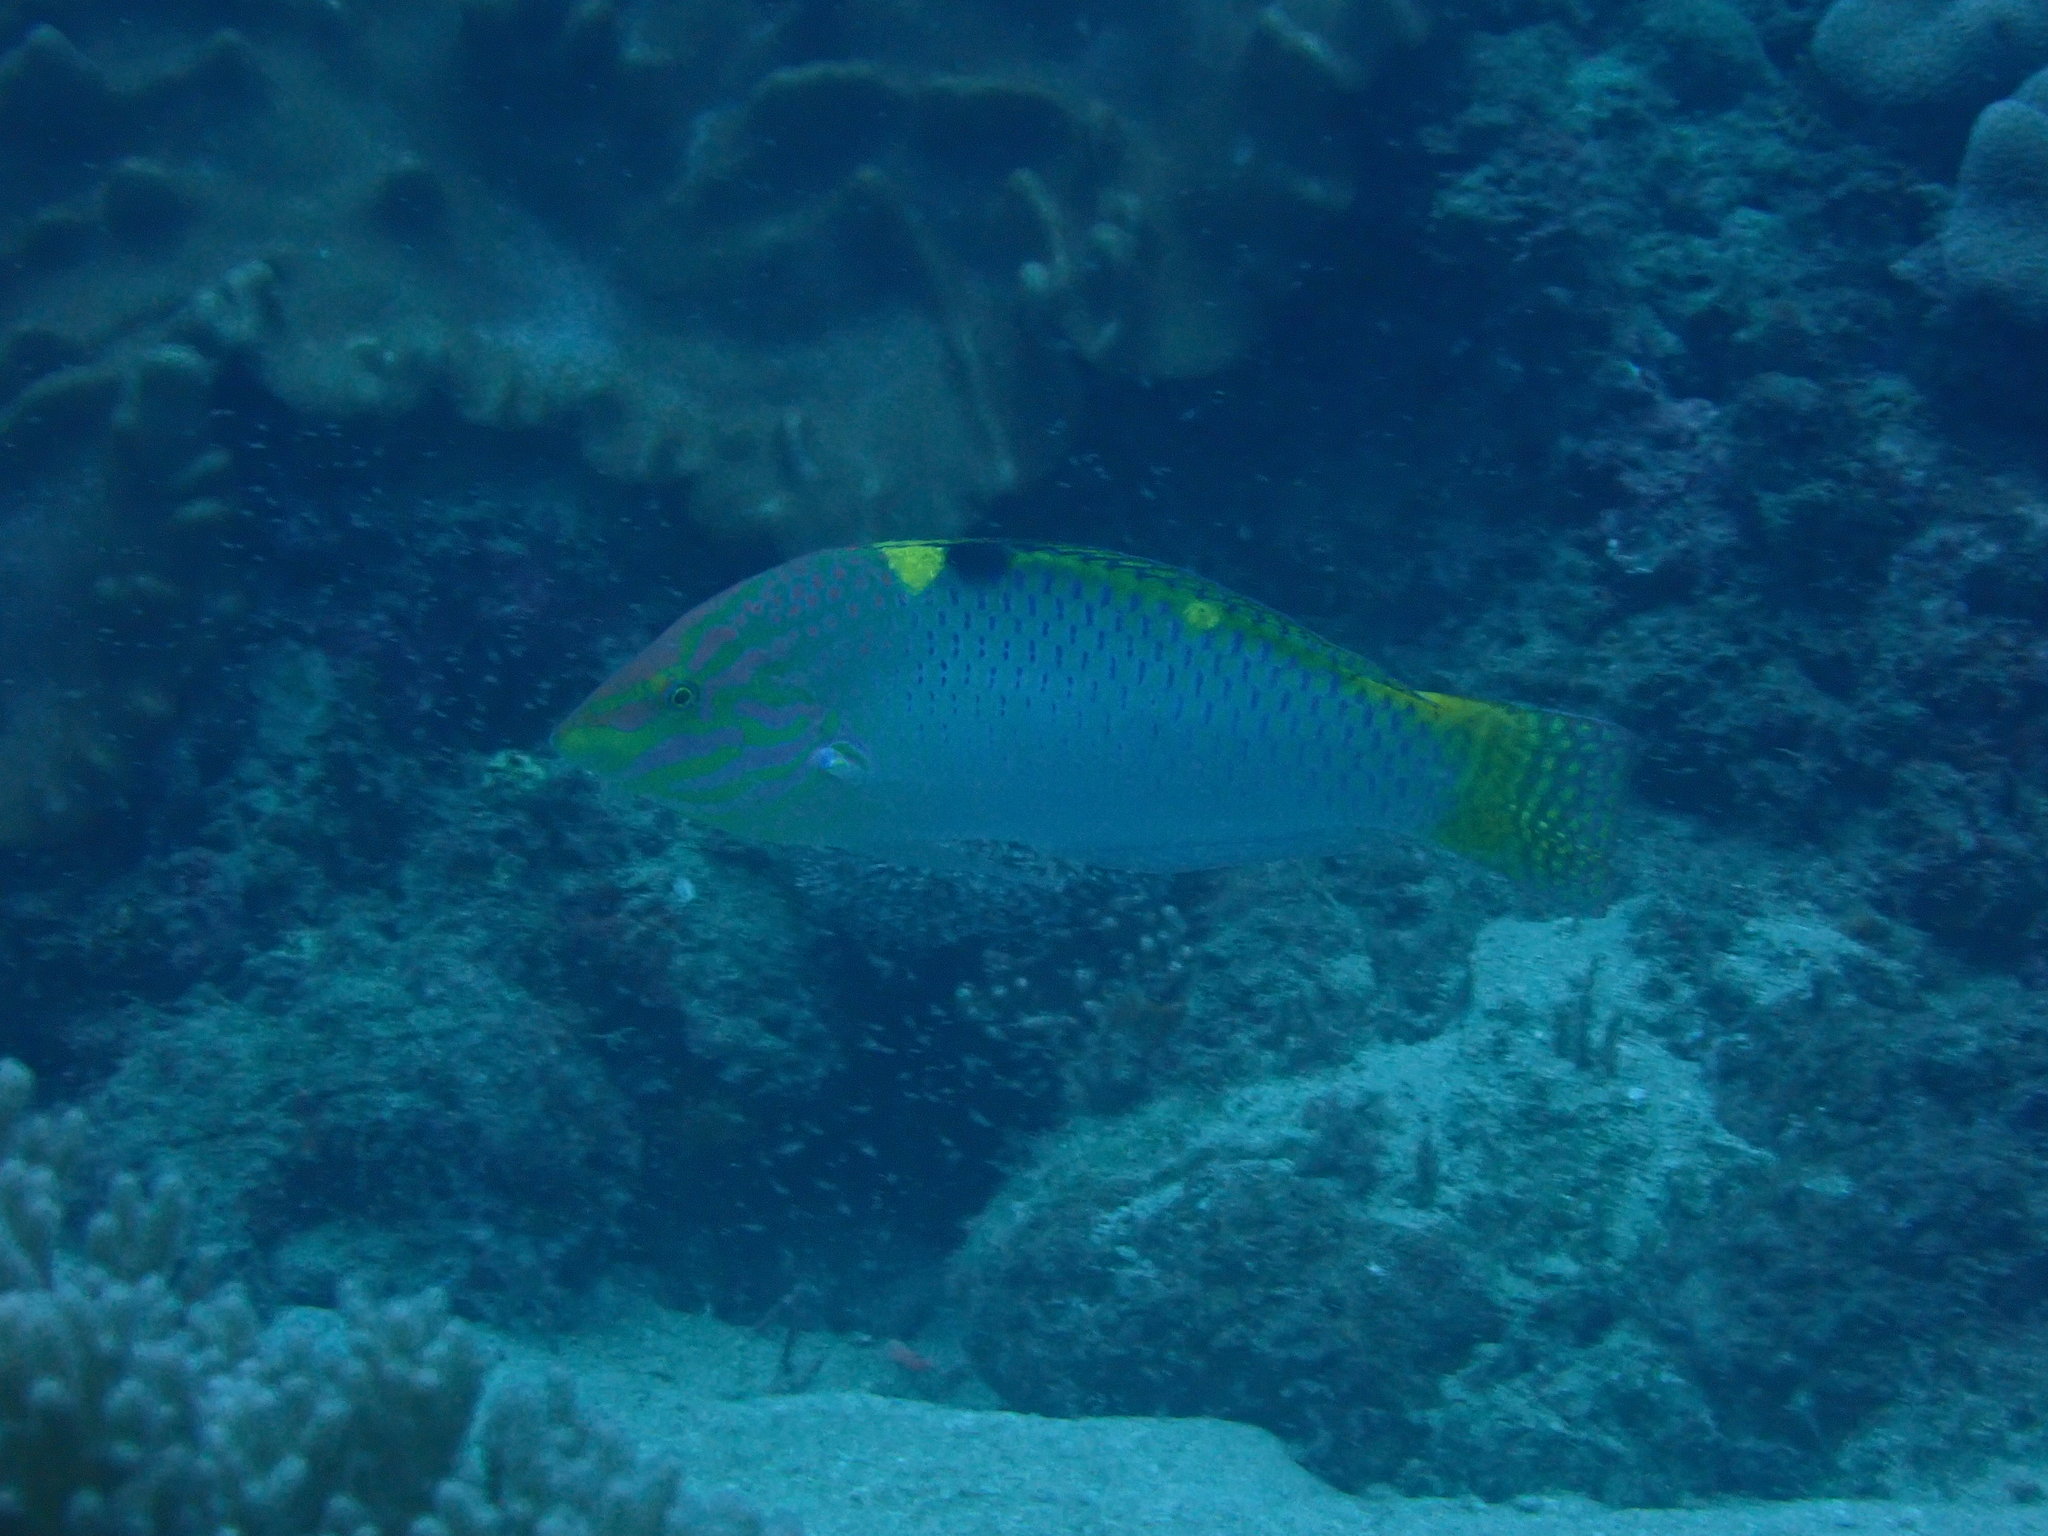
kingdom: Animalia
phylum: Chordata
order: Perciformes
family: Labridae
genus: Halichoeres
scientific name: Halichoeres hortulanus
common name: Checkerboard wrasse
